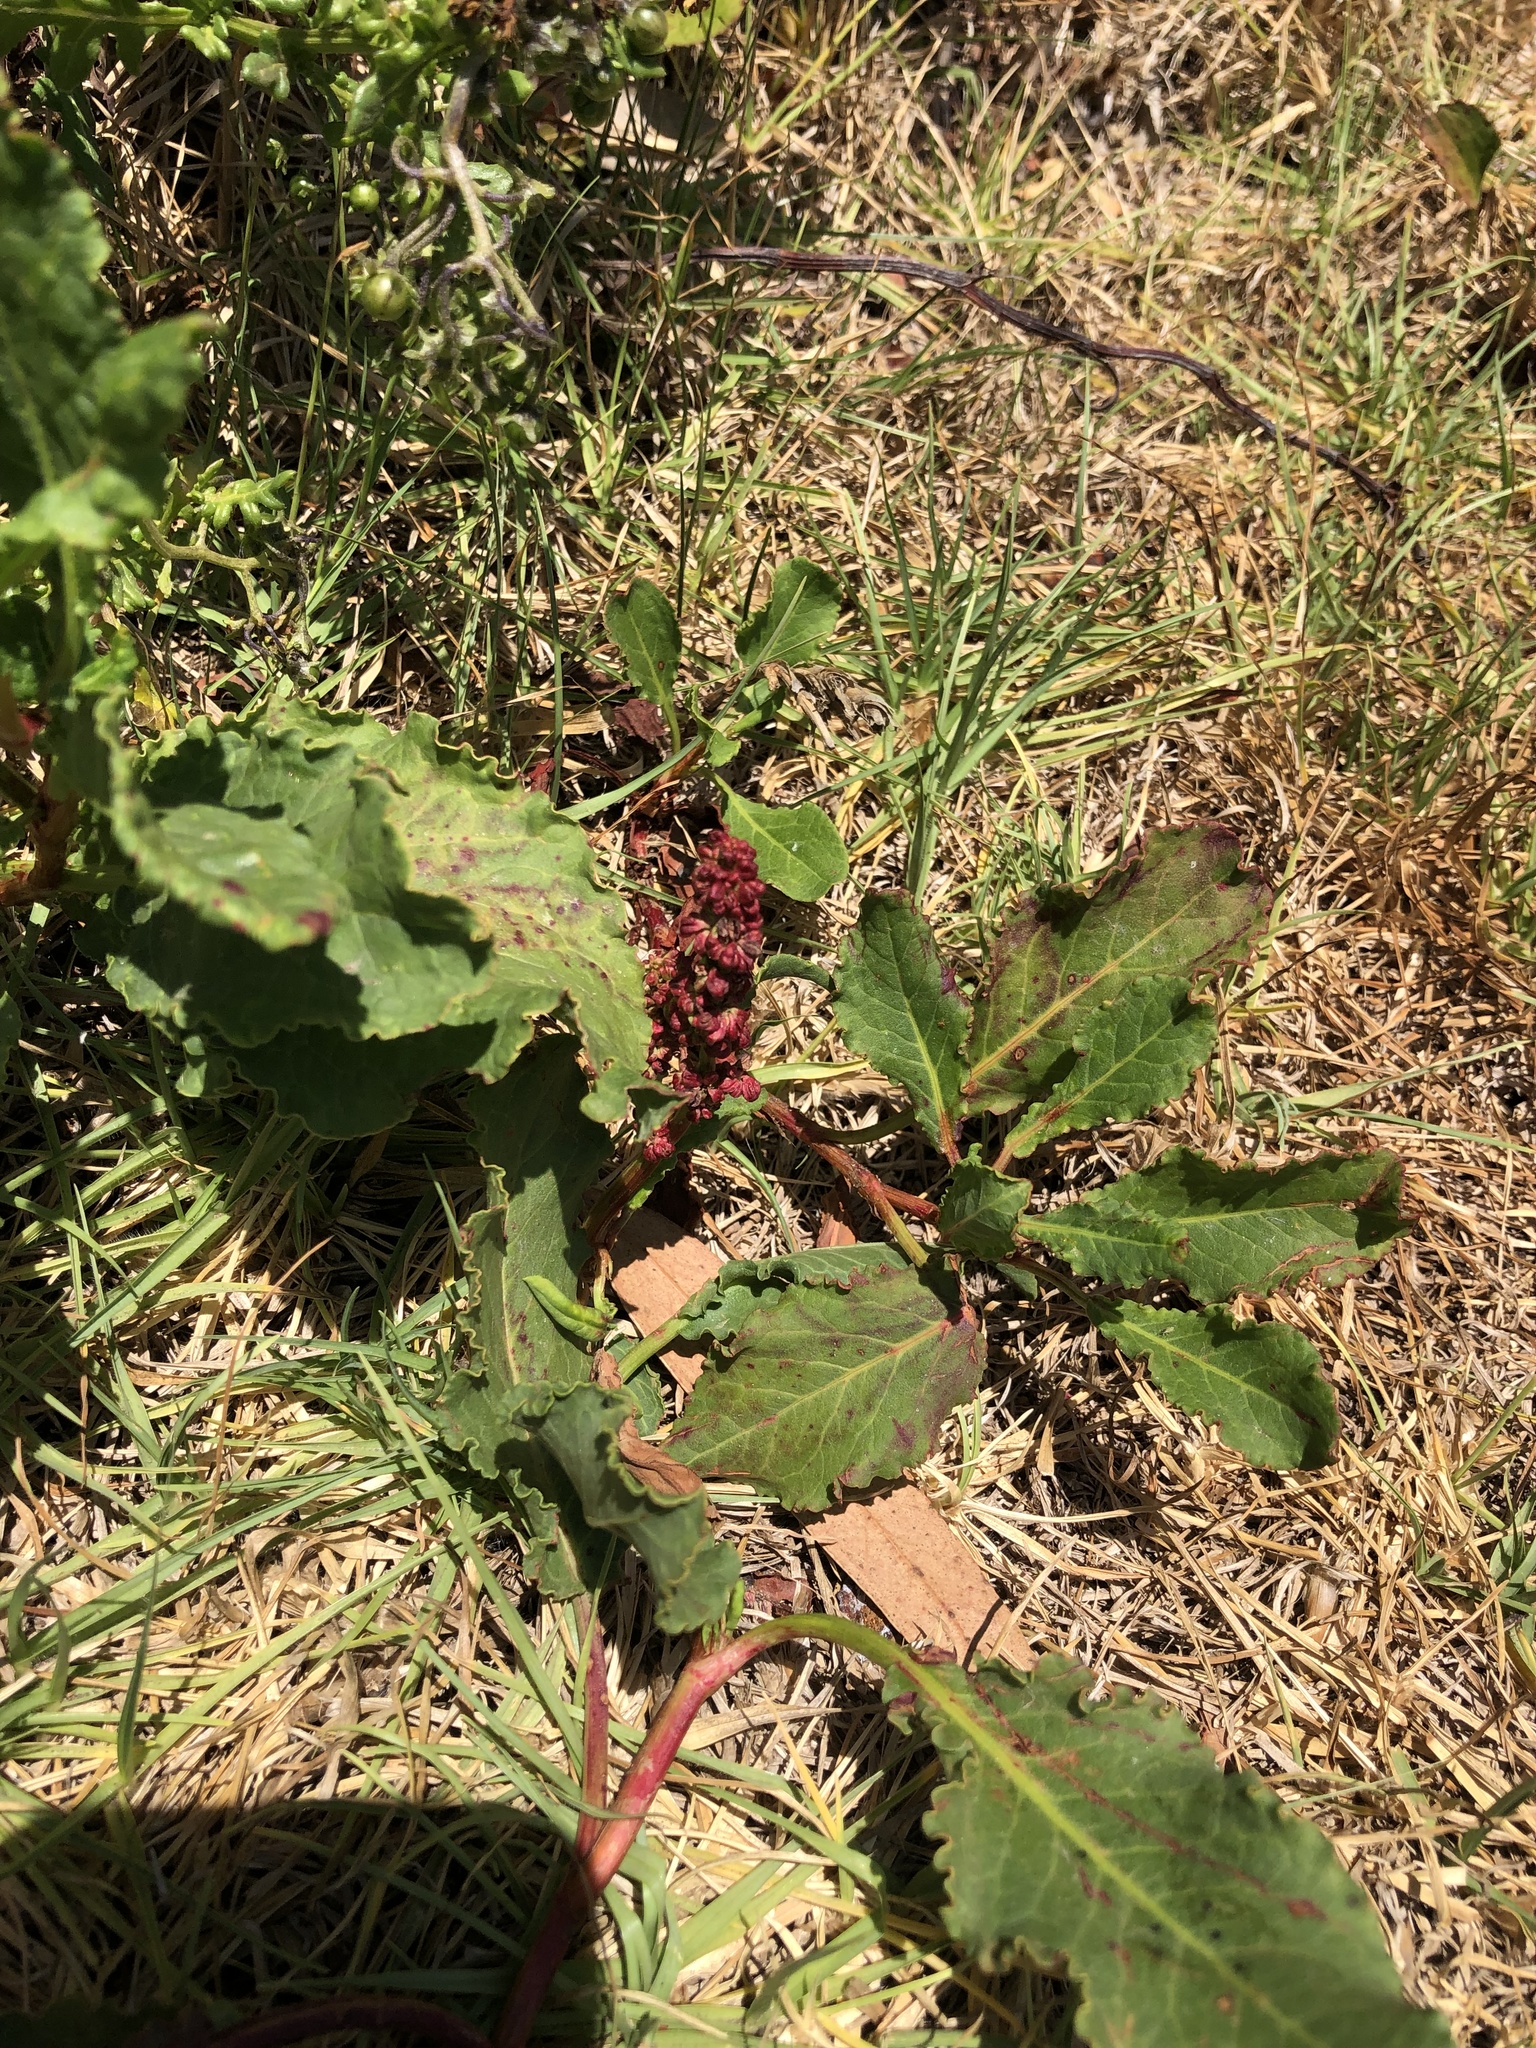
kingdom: Plantae
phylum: Tracheophyta
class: Magnoliopsida
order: Caryophyllales
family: Polygonaceae
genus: Rumex
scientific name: Rumex maricola
